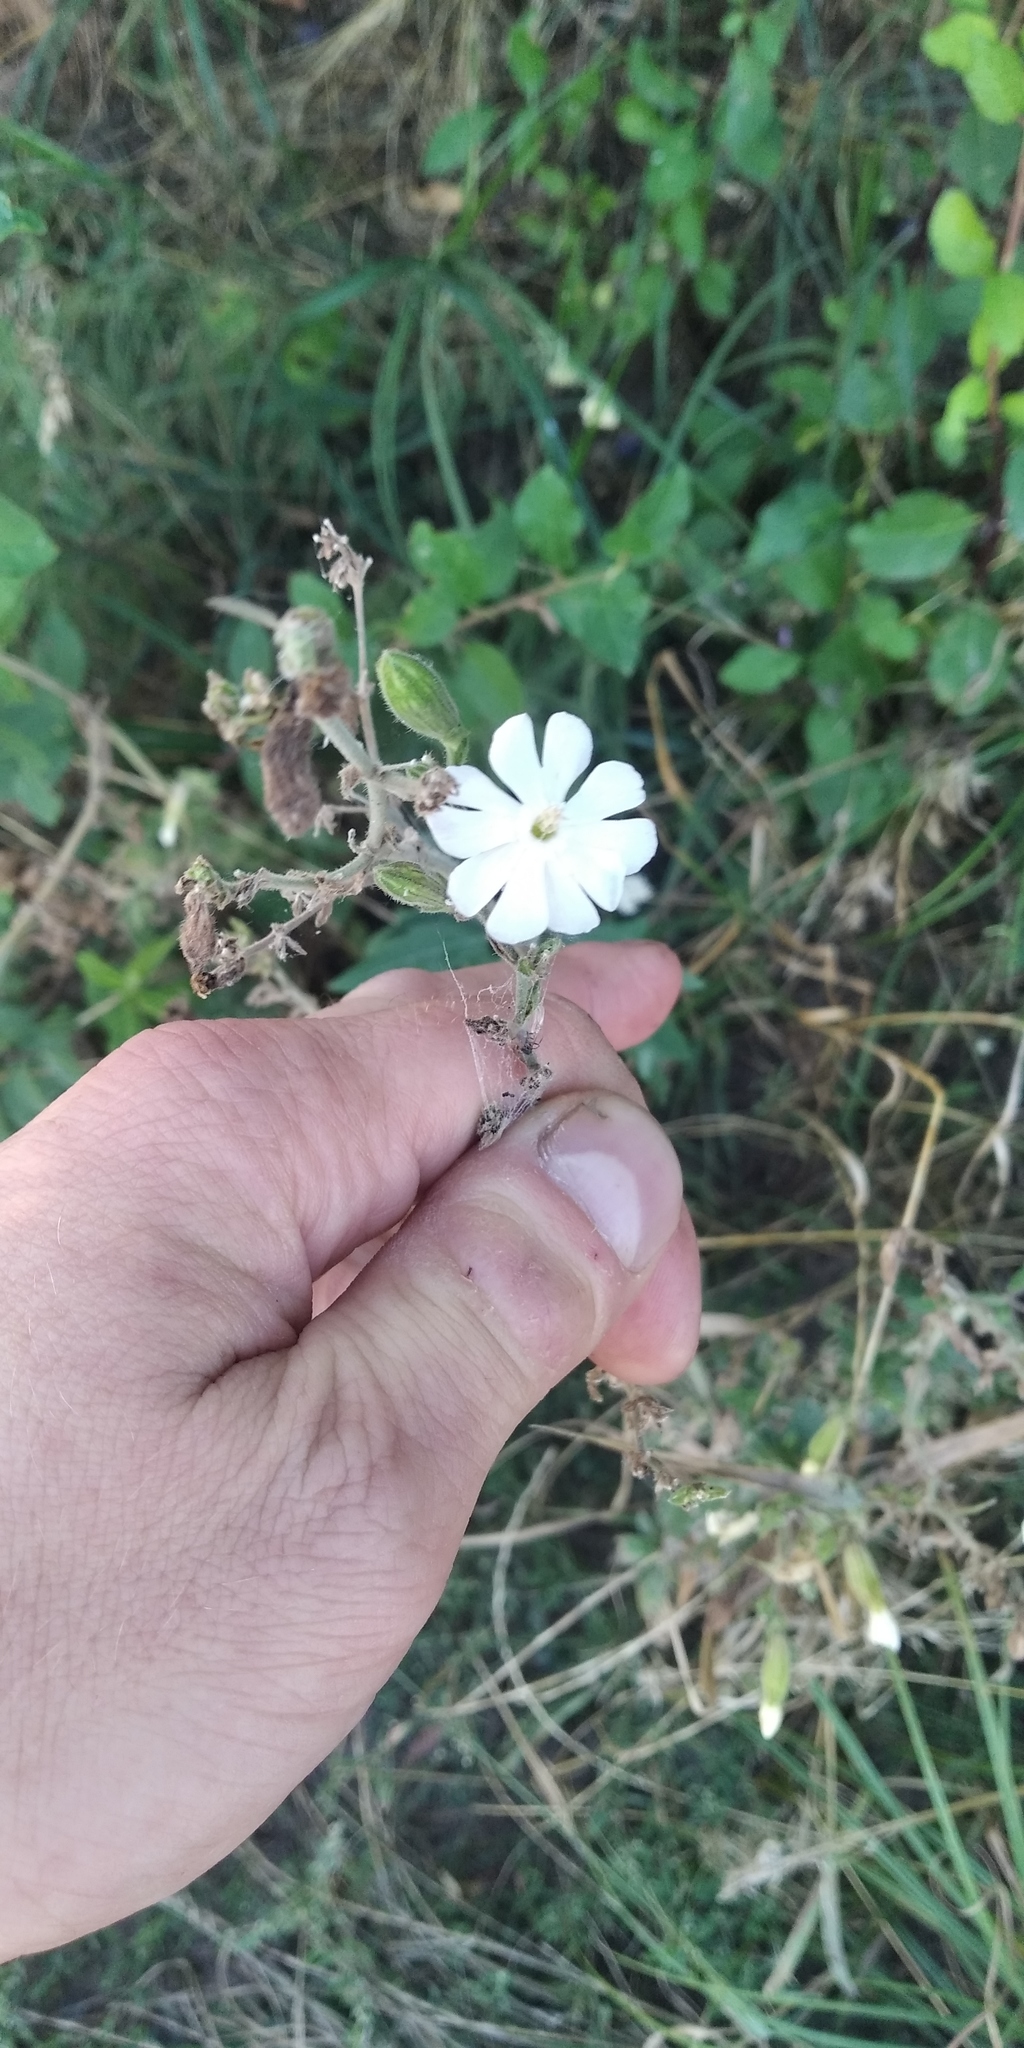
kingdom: Plantae
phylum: Tracheophyta
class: Magnoliopsida
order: Caryophyllales
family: Caryophyllaceae
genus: Silene
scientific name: Silene latifolia
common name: White campion
